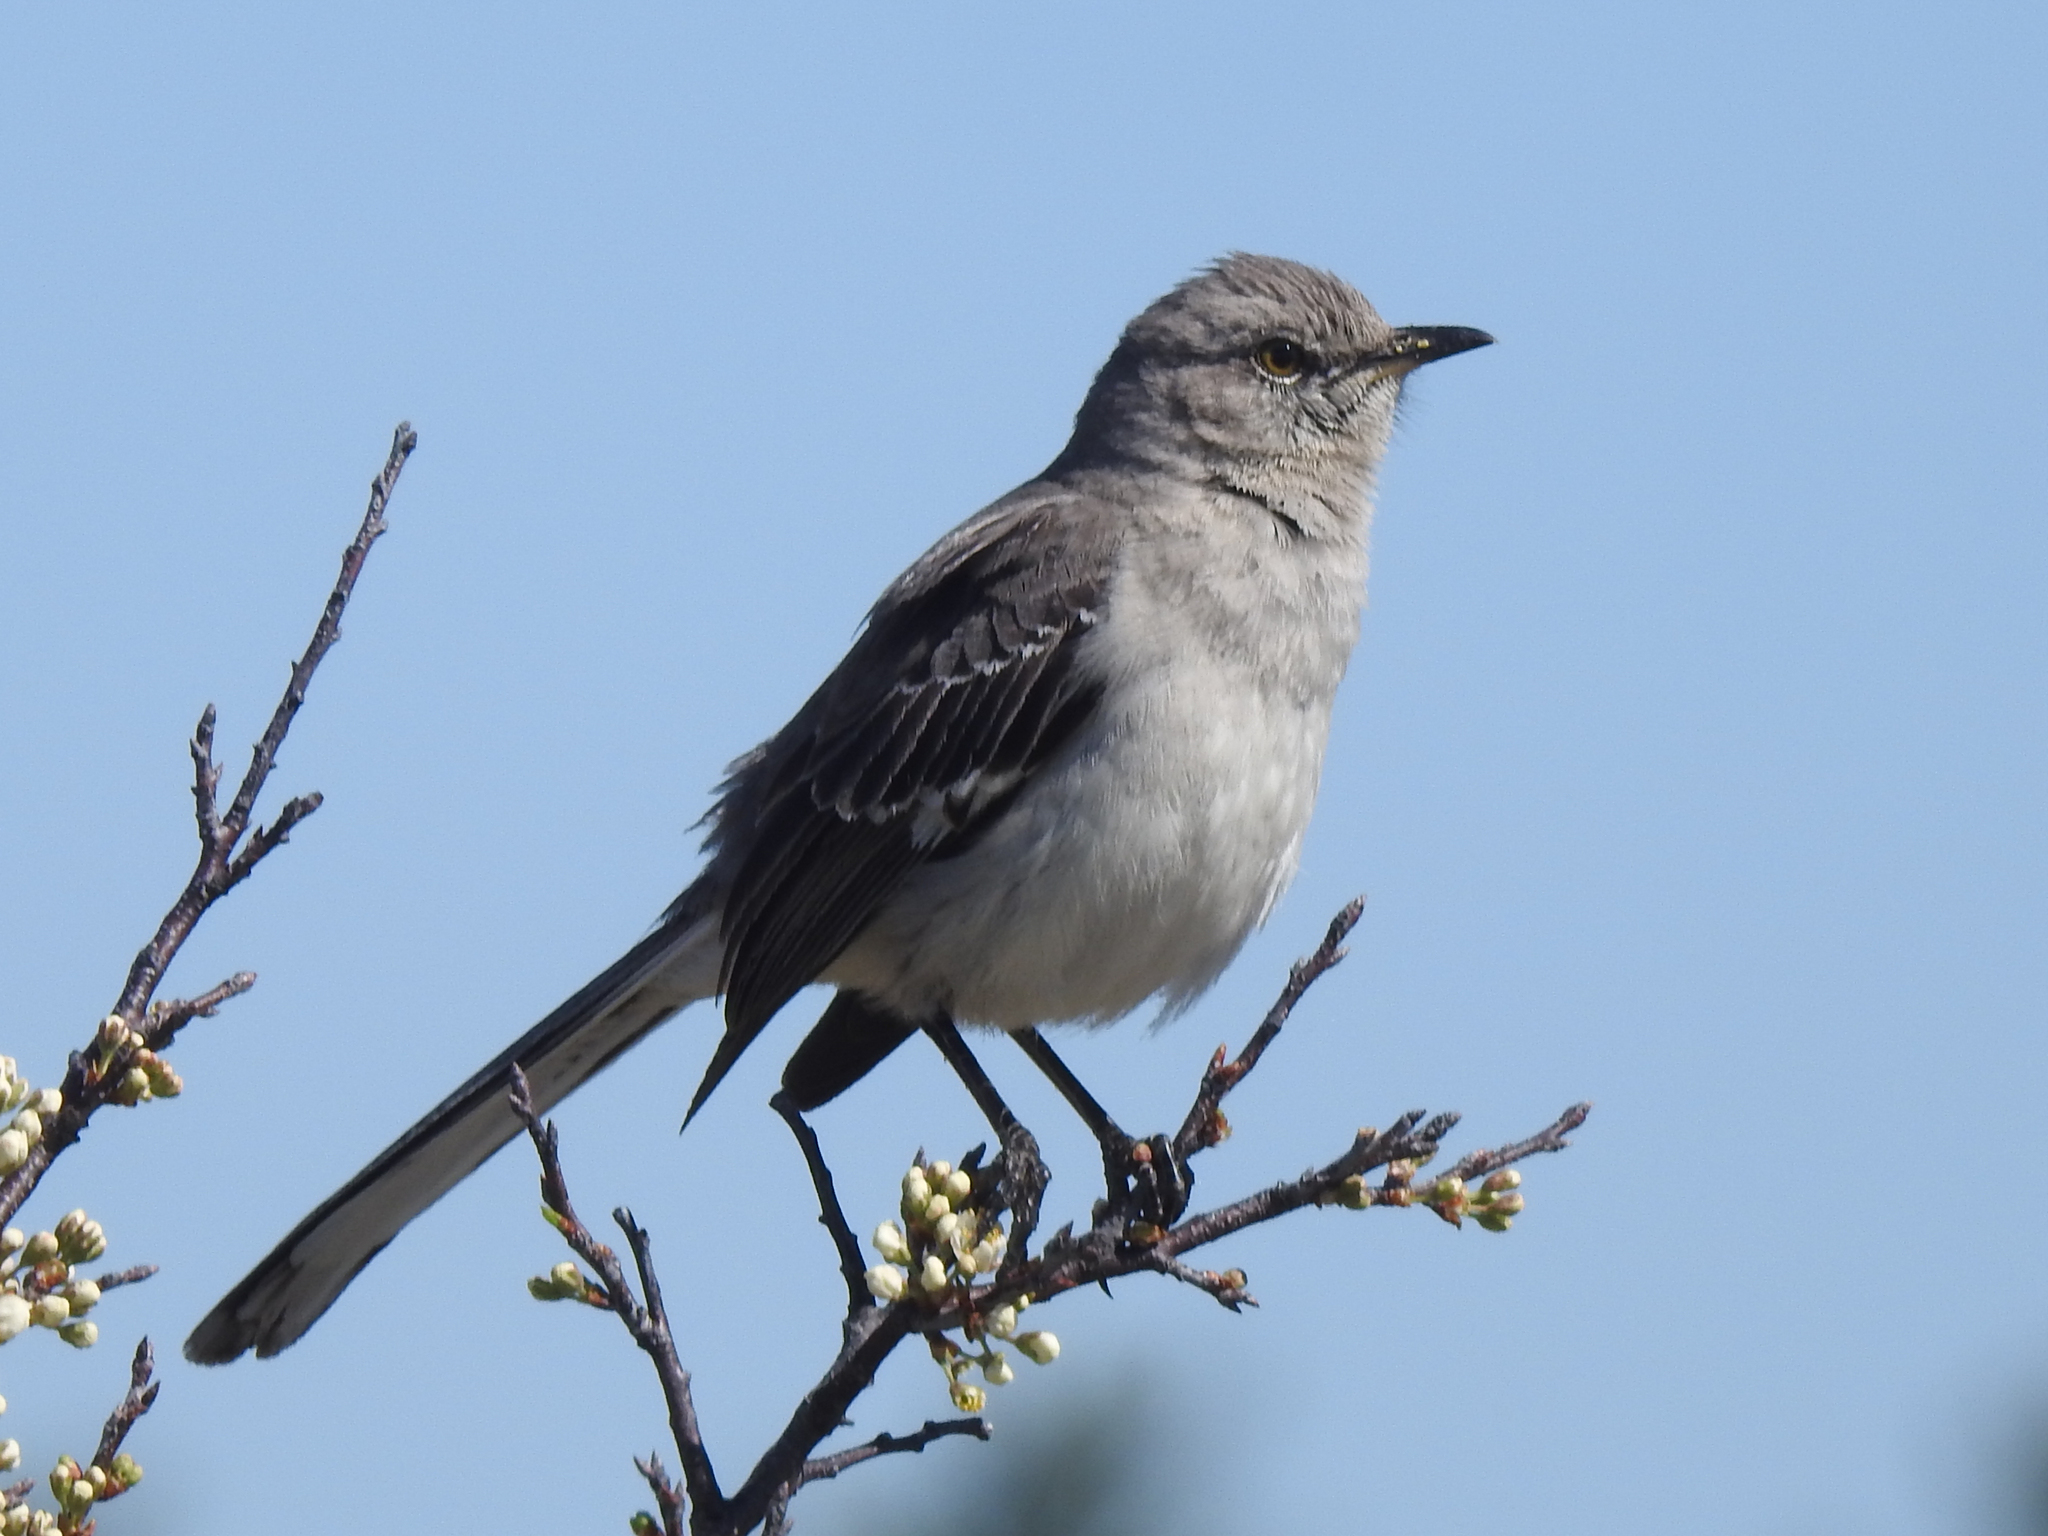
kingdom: Animalia
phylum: Chordata
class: Aves
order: Passeriformes
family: Mimidae
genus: Mimus
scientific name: Mimus polyglottos
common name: Northern mockingbird
